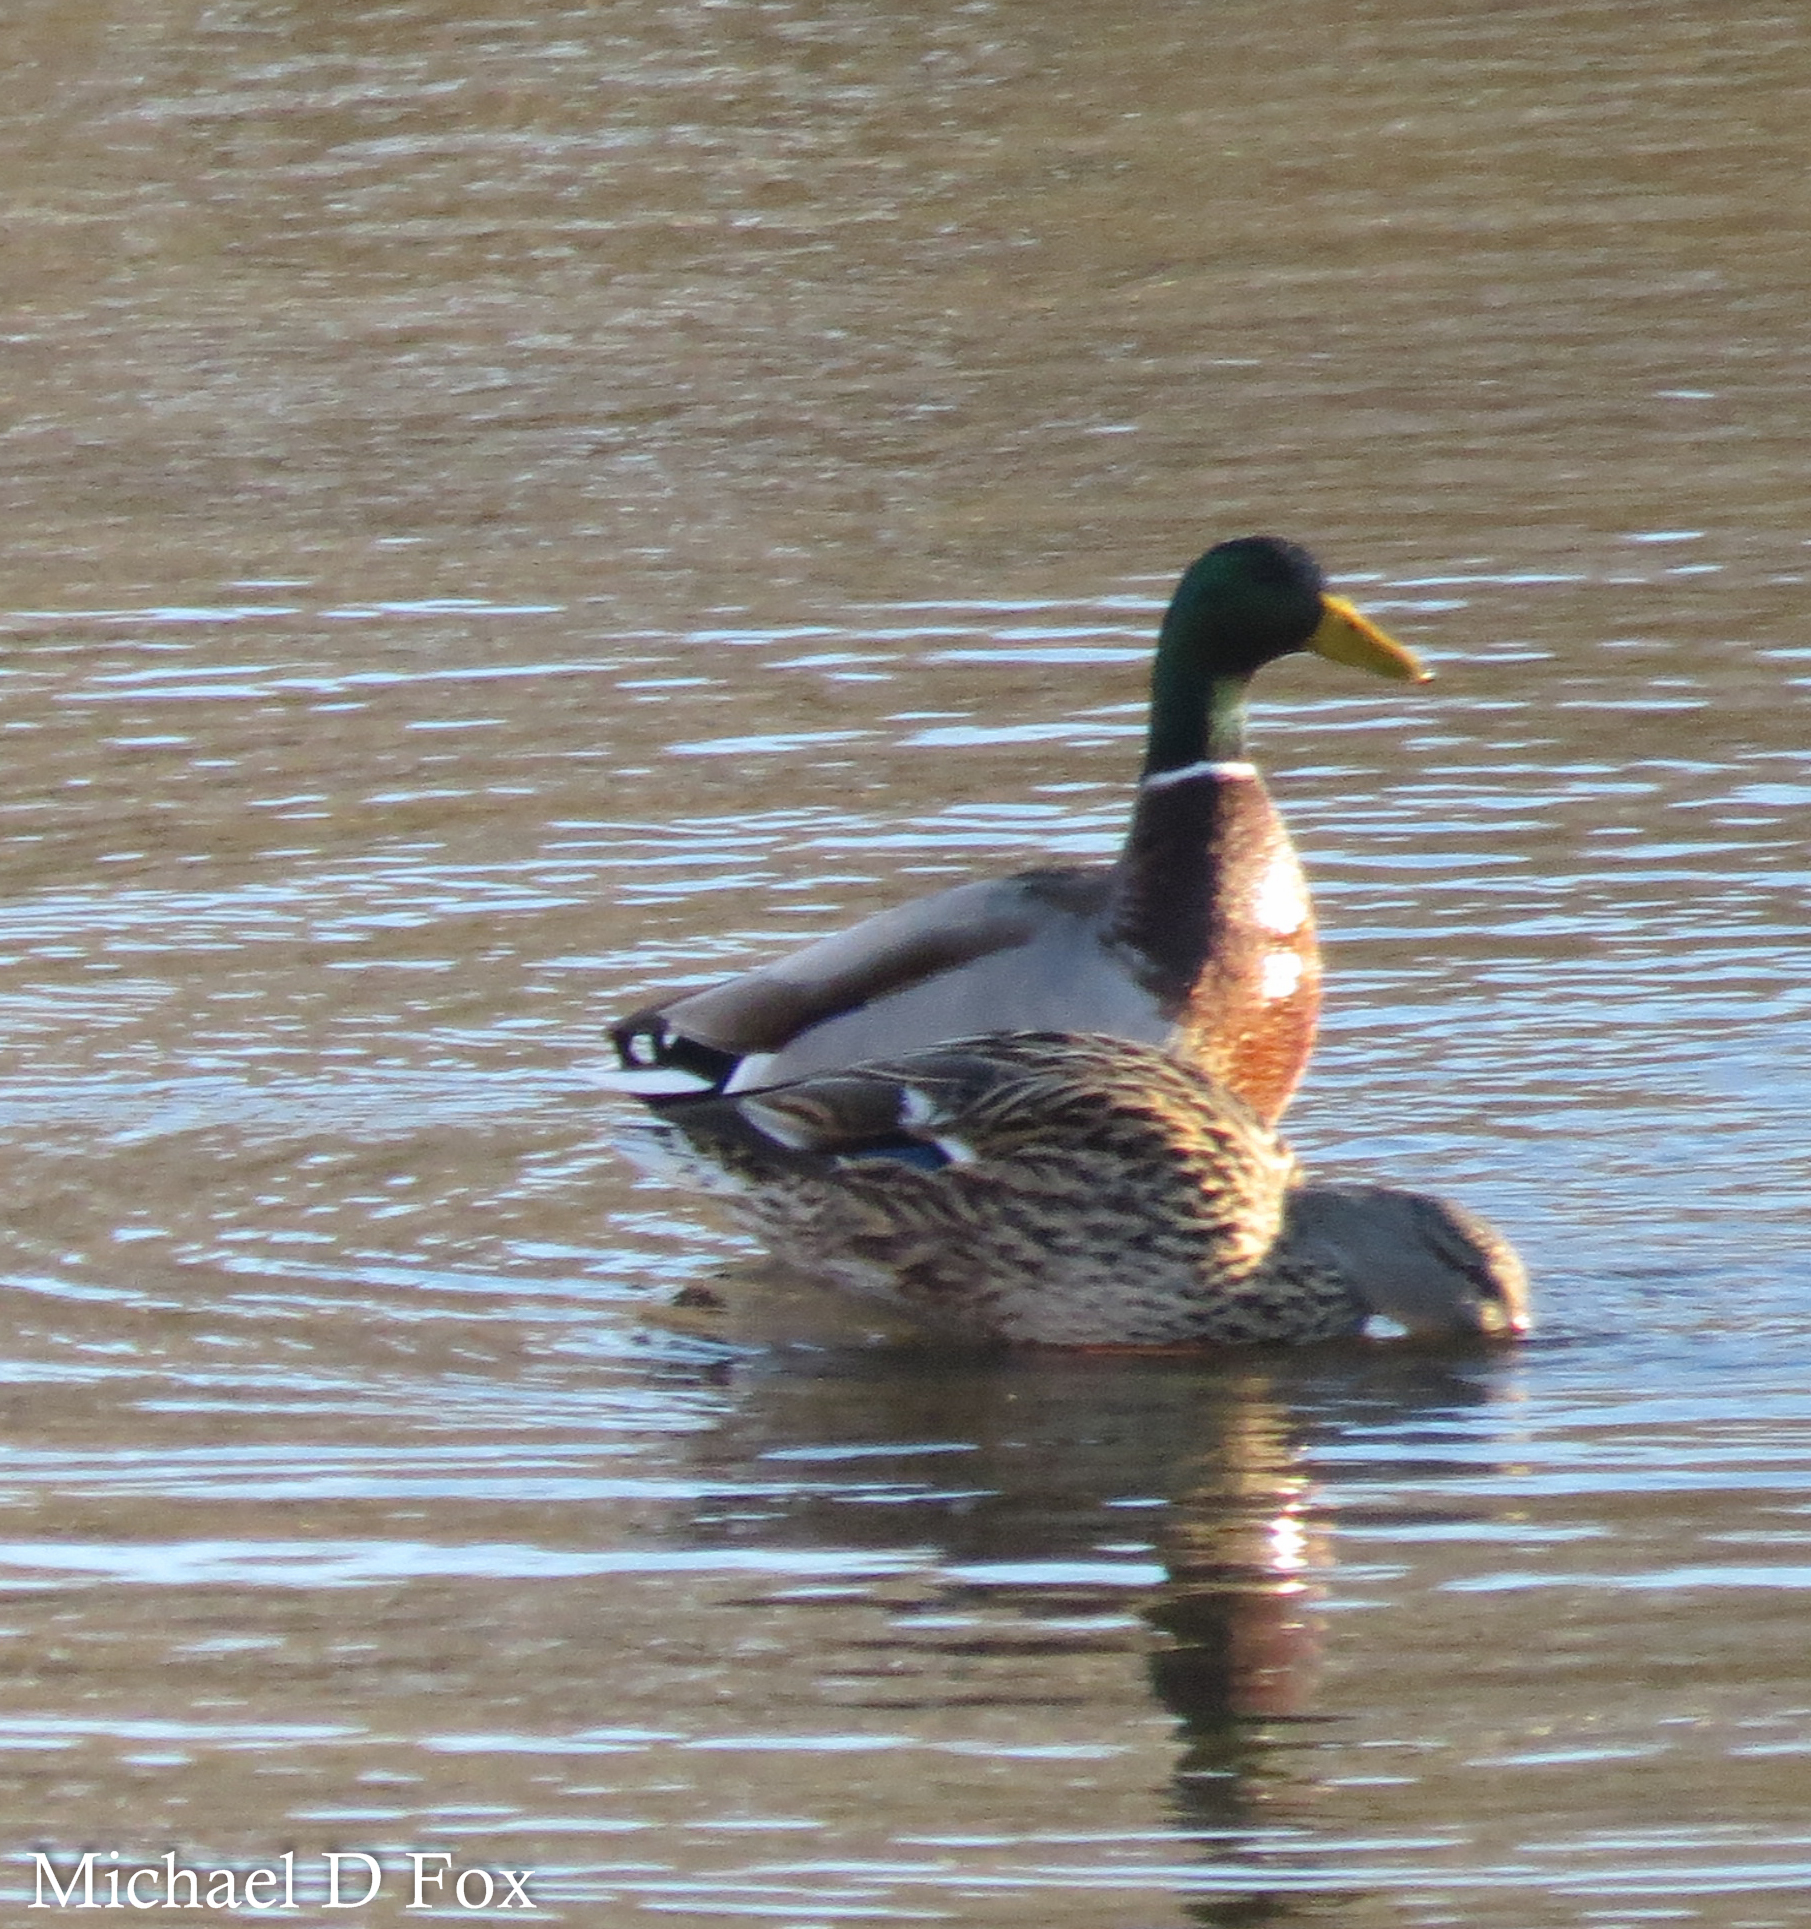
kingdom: Animalia
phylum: Chordata
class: Aves
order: Anseriformes
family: Anatidae
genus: Anas
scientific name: Anas platyrhynchos
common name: Mallard
